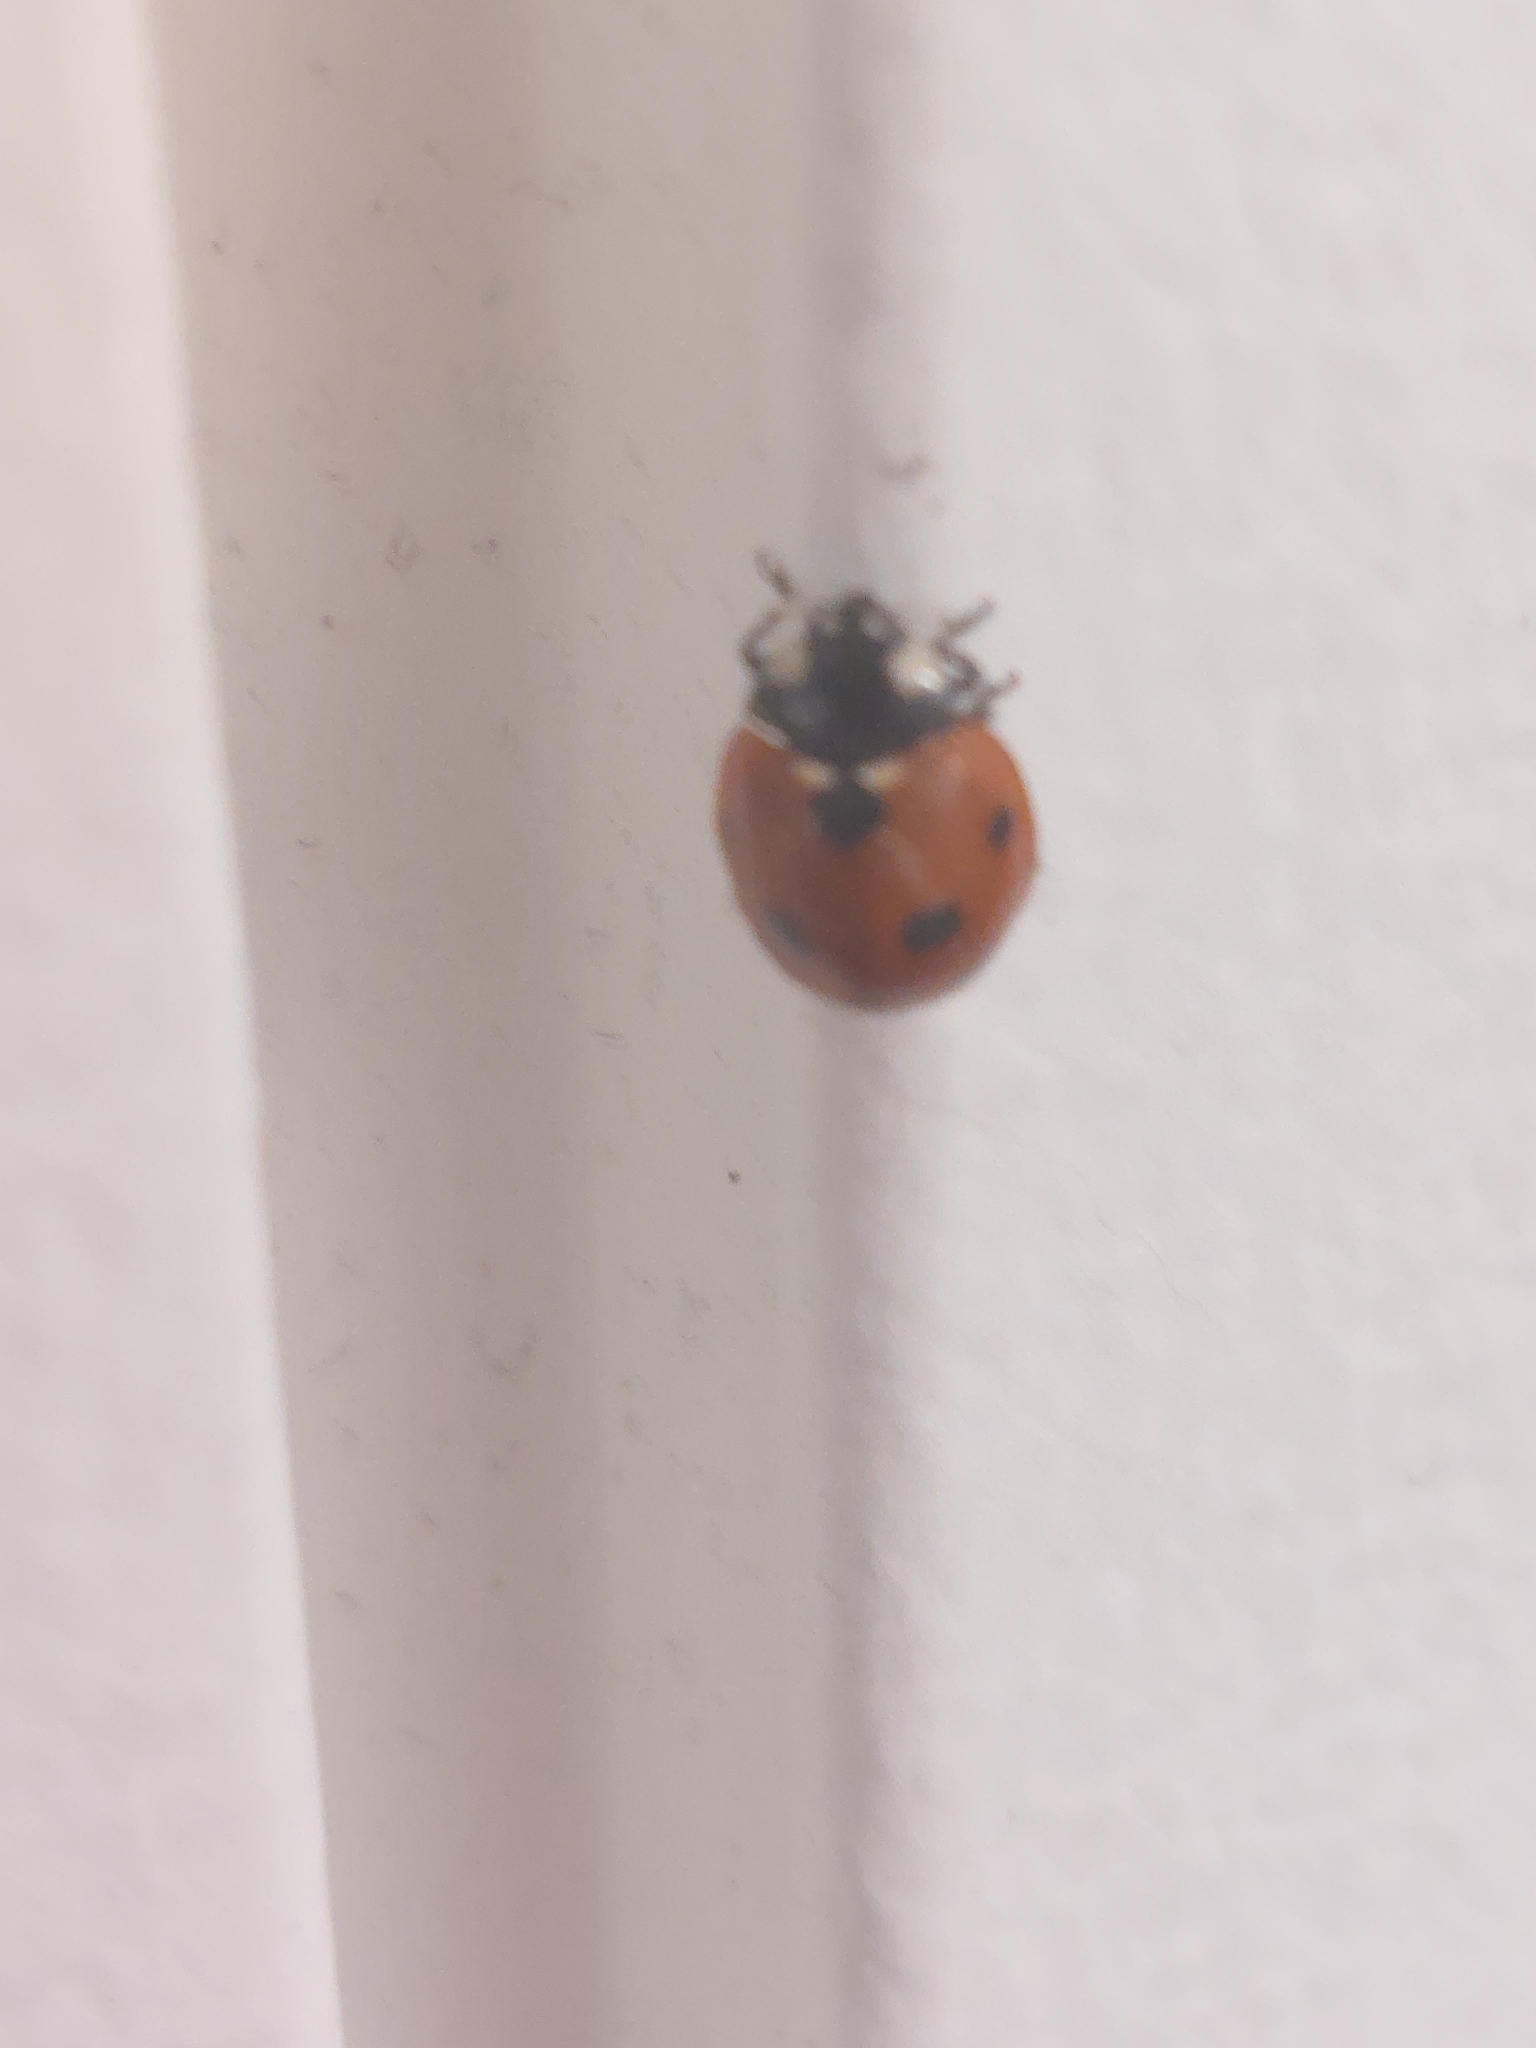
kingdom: Animalia
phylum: Arthropoda
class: Insecta
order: Coleoptera
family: Coccinellidae
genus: Coccinella
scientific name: Coccinella septempunctata
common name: Sevenspotted lady beetle
